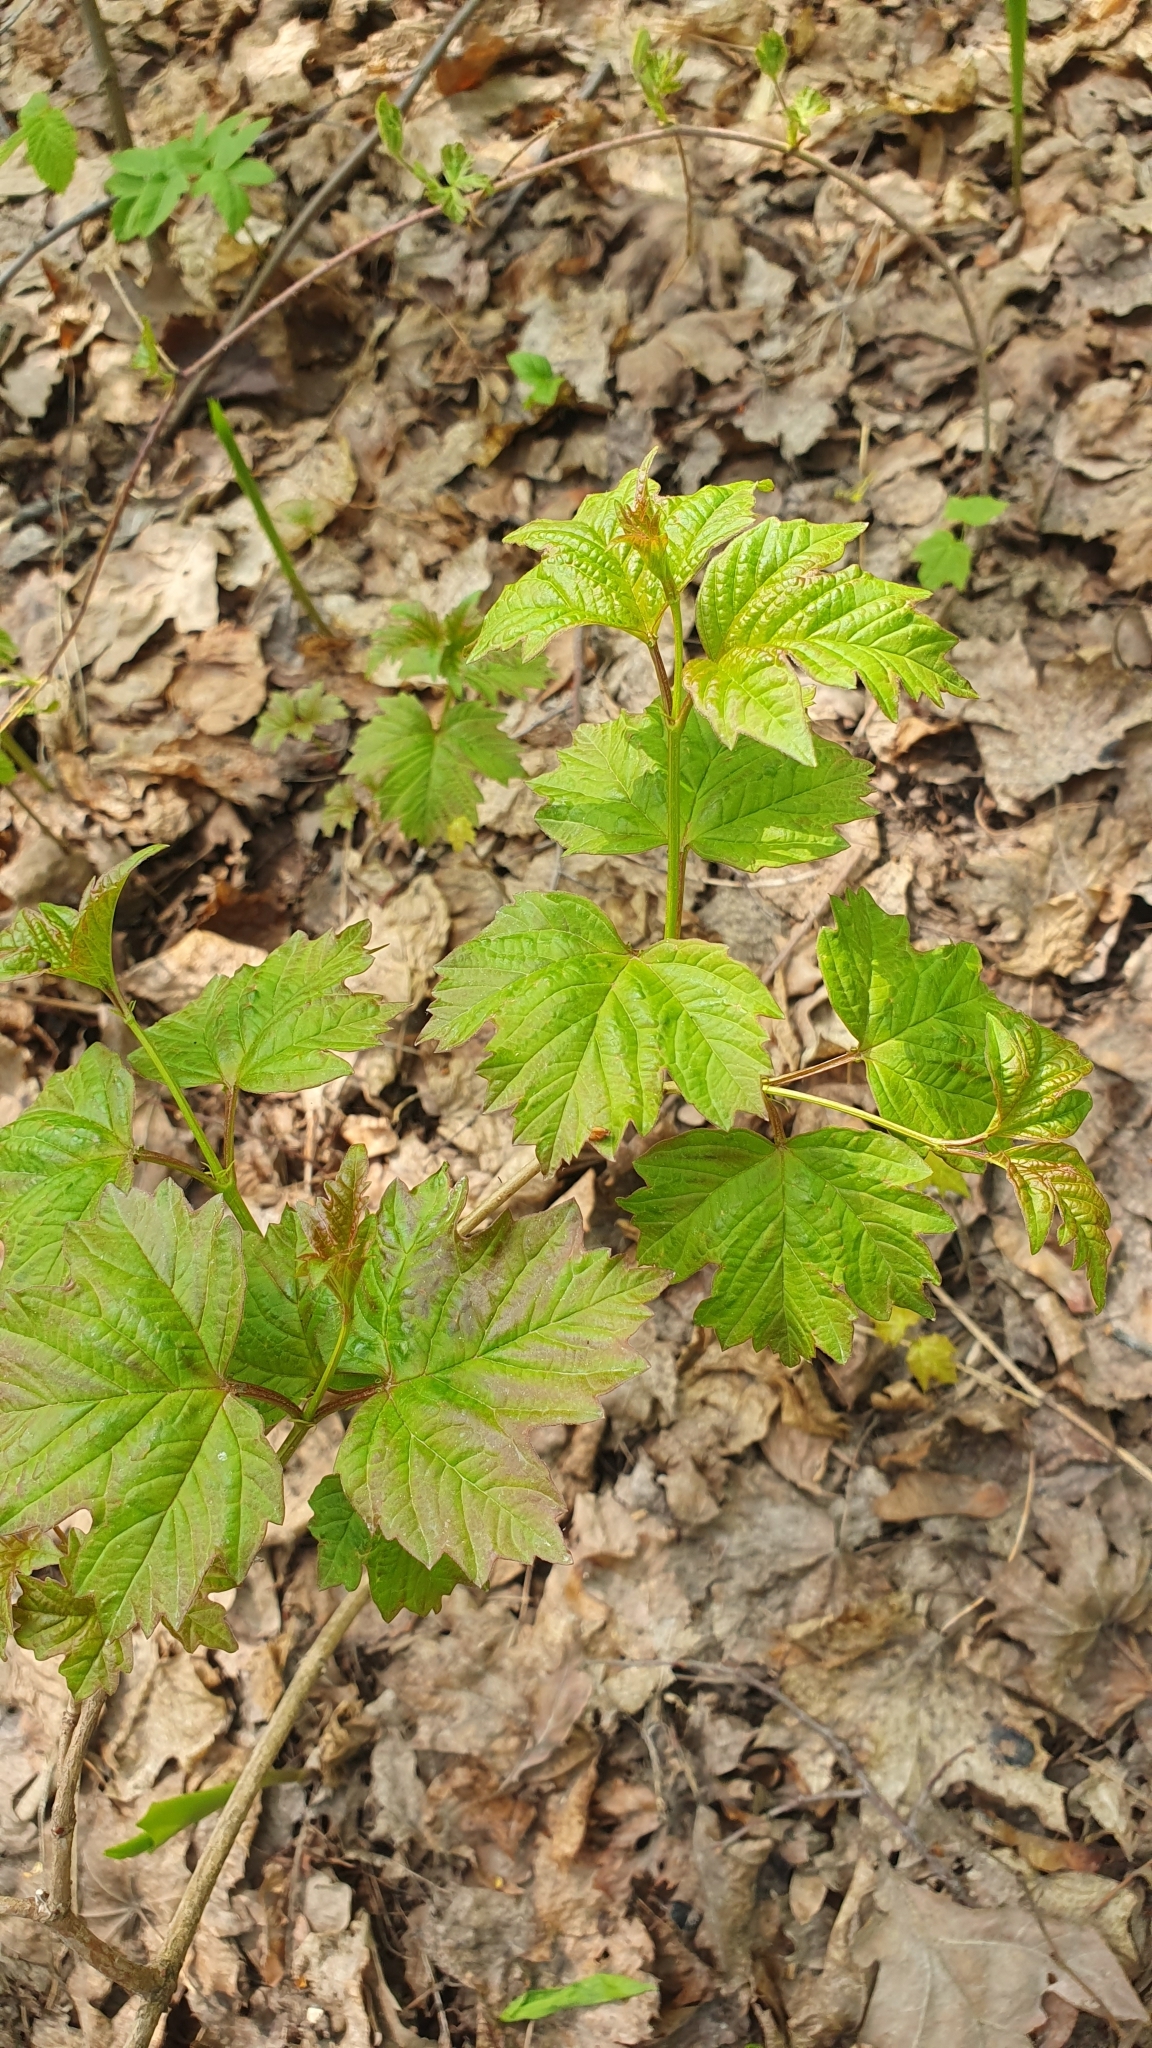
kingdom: Plantae
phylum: Tracheophyta
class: Magnoliopsida
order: Dipsacales
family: Viburnaceae
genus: Viburnum
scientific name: Viburnum opulus
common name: Guelder-rose
